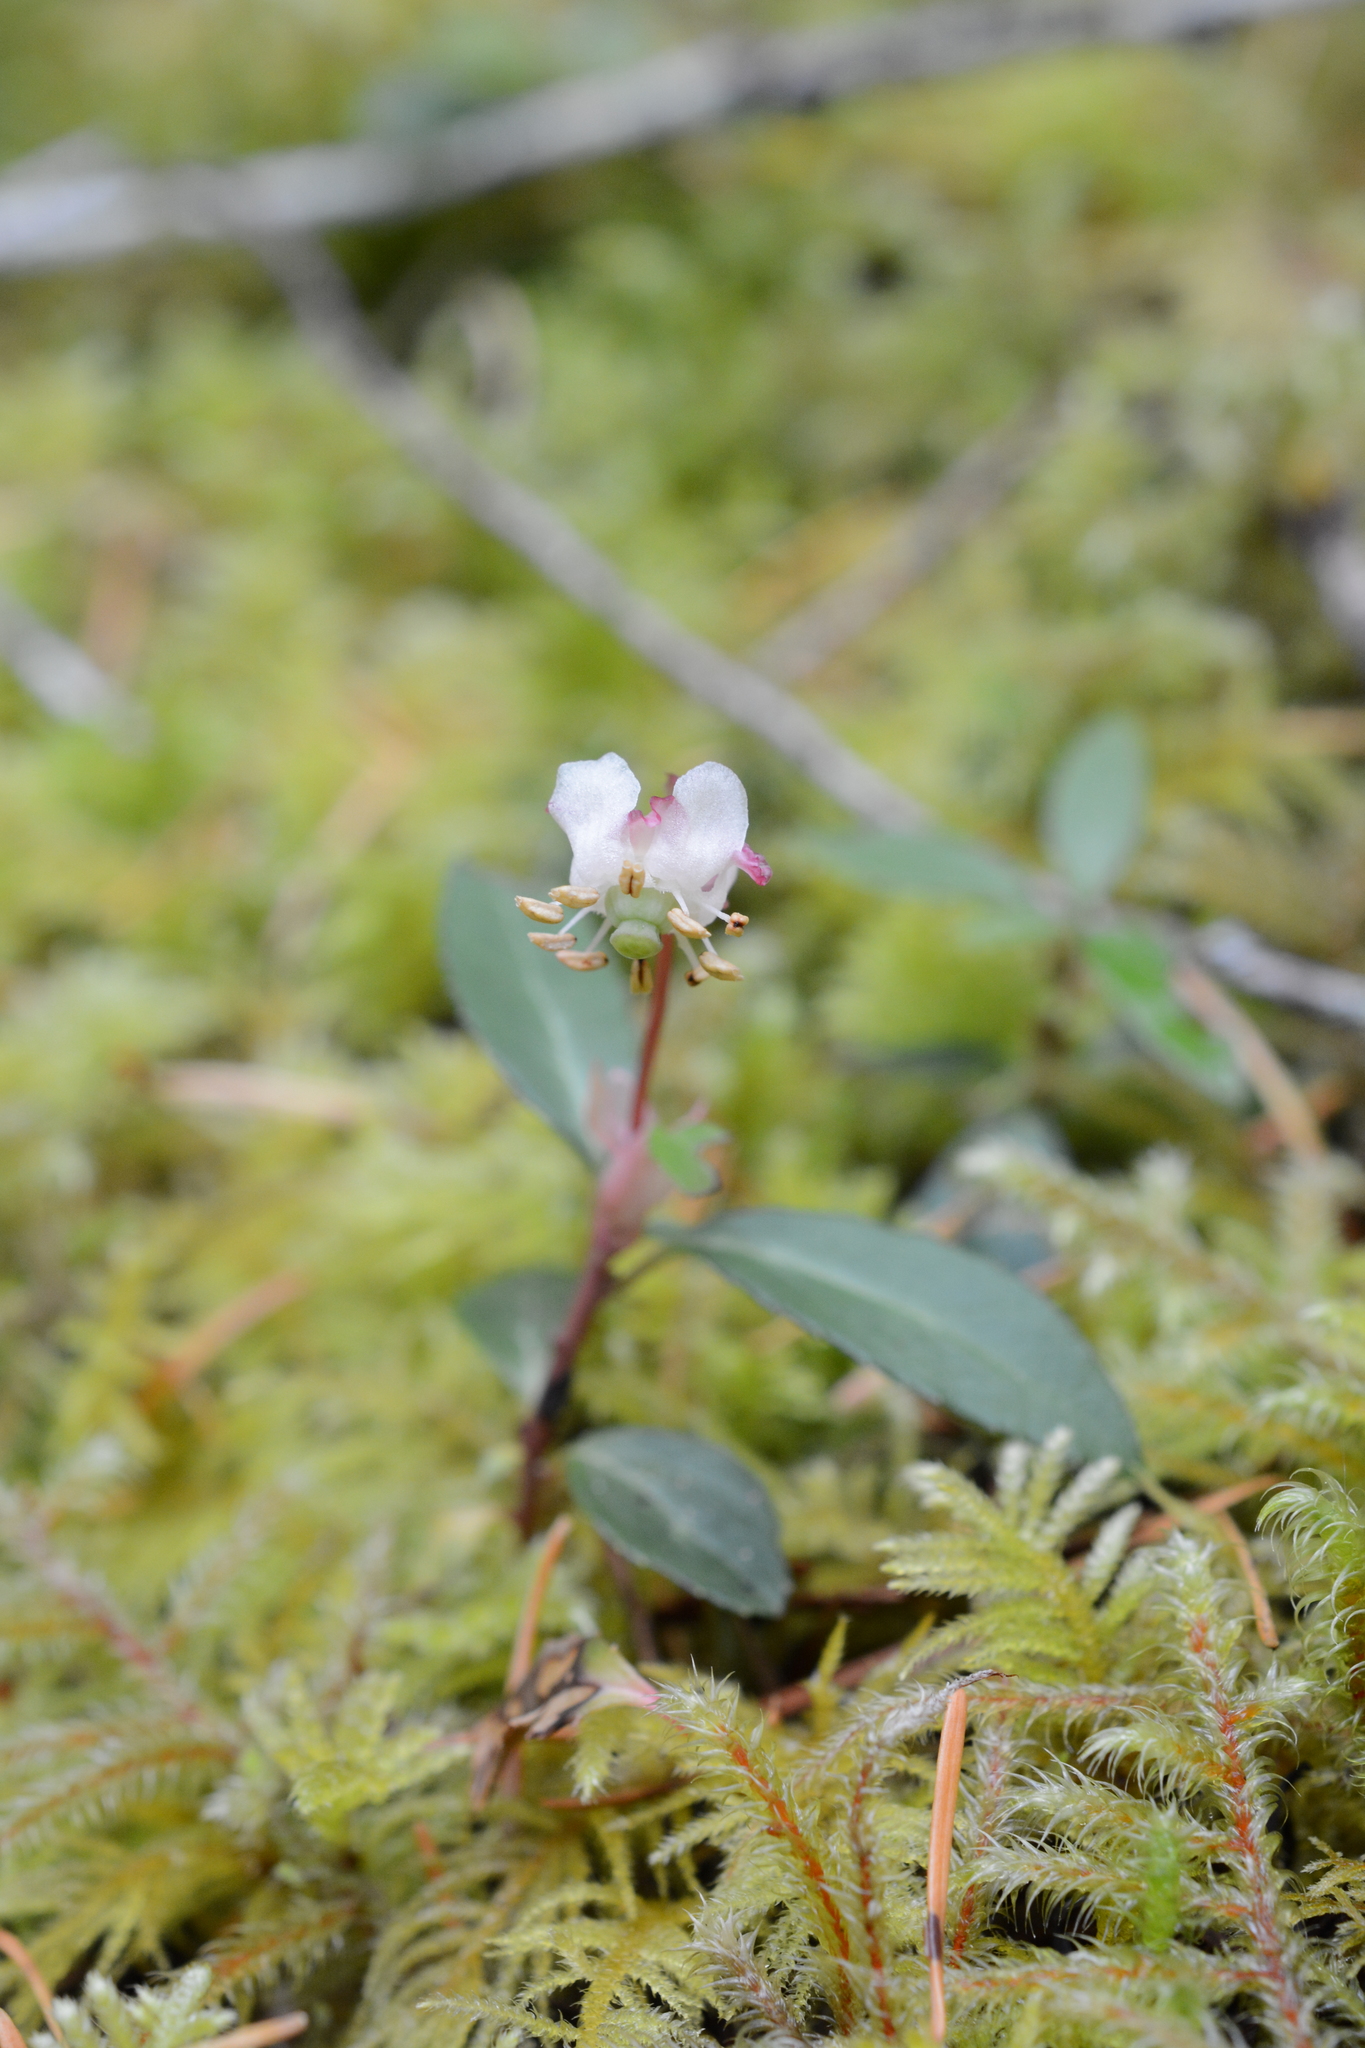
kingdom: Plantae
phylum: Tracheophyta
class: Magnoliopsida
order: Ericales
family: Ericaceae
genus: Chimaphila
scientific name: Chimaphila menziesii
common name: Menzies' pipsissewa
